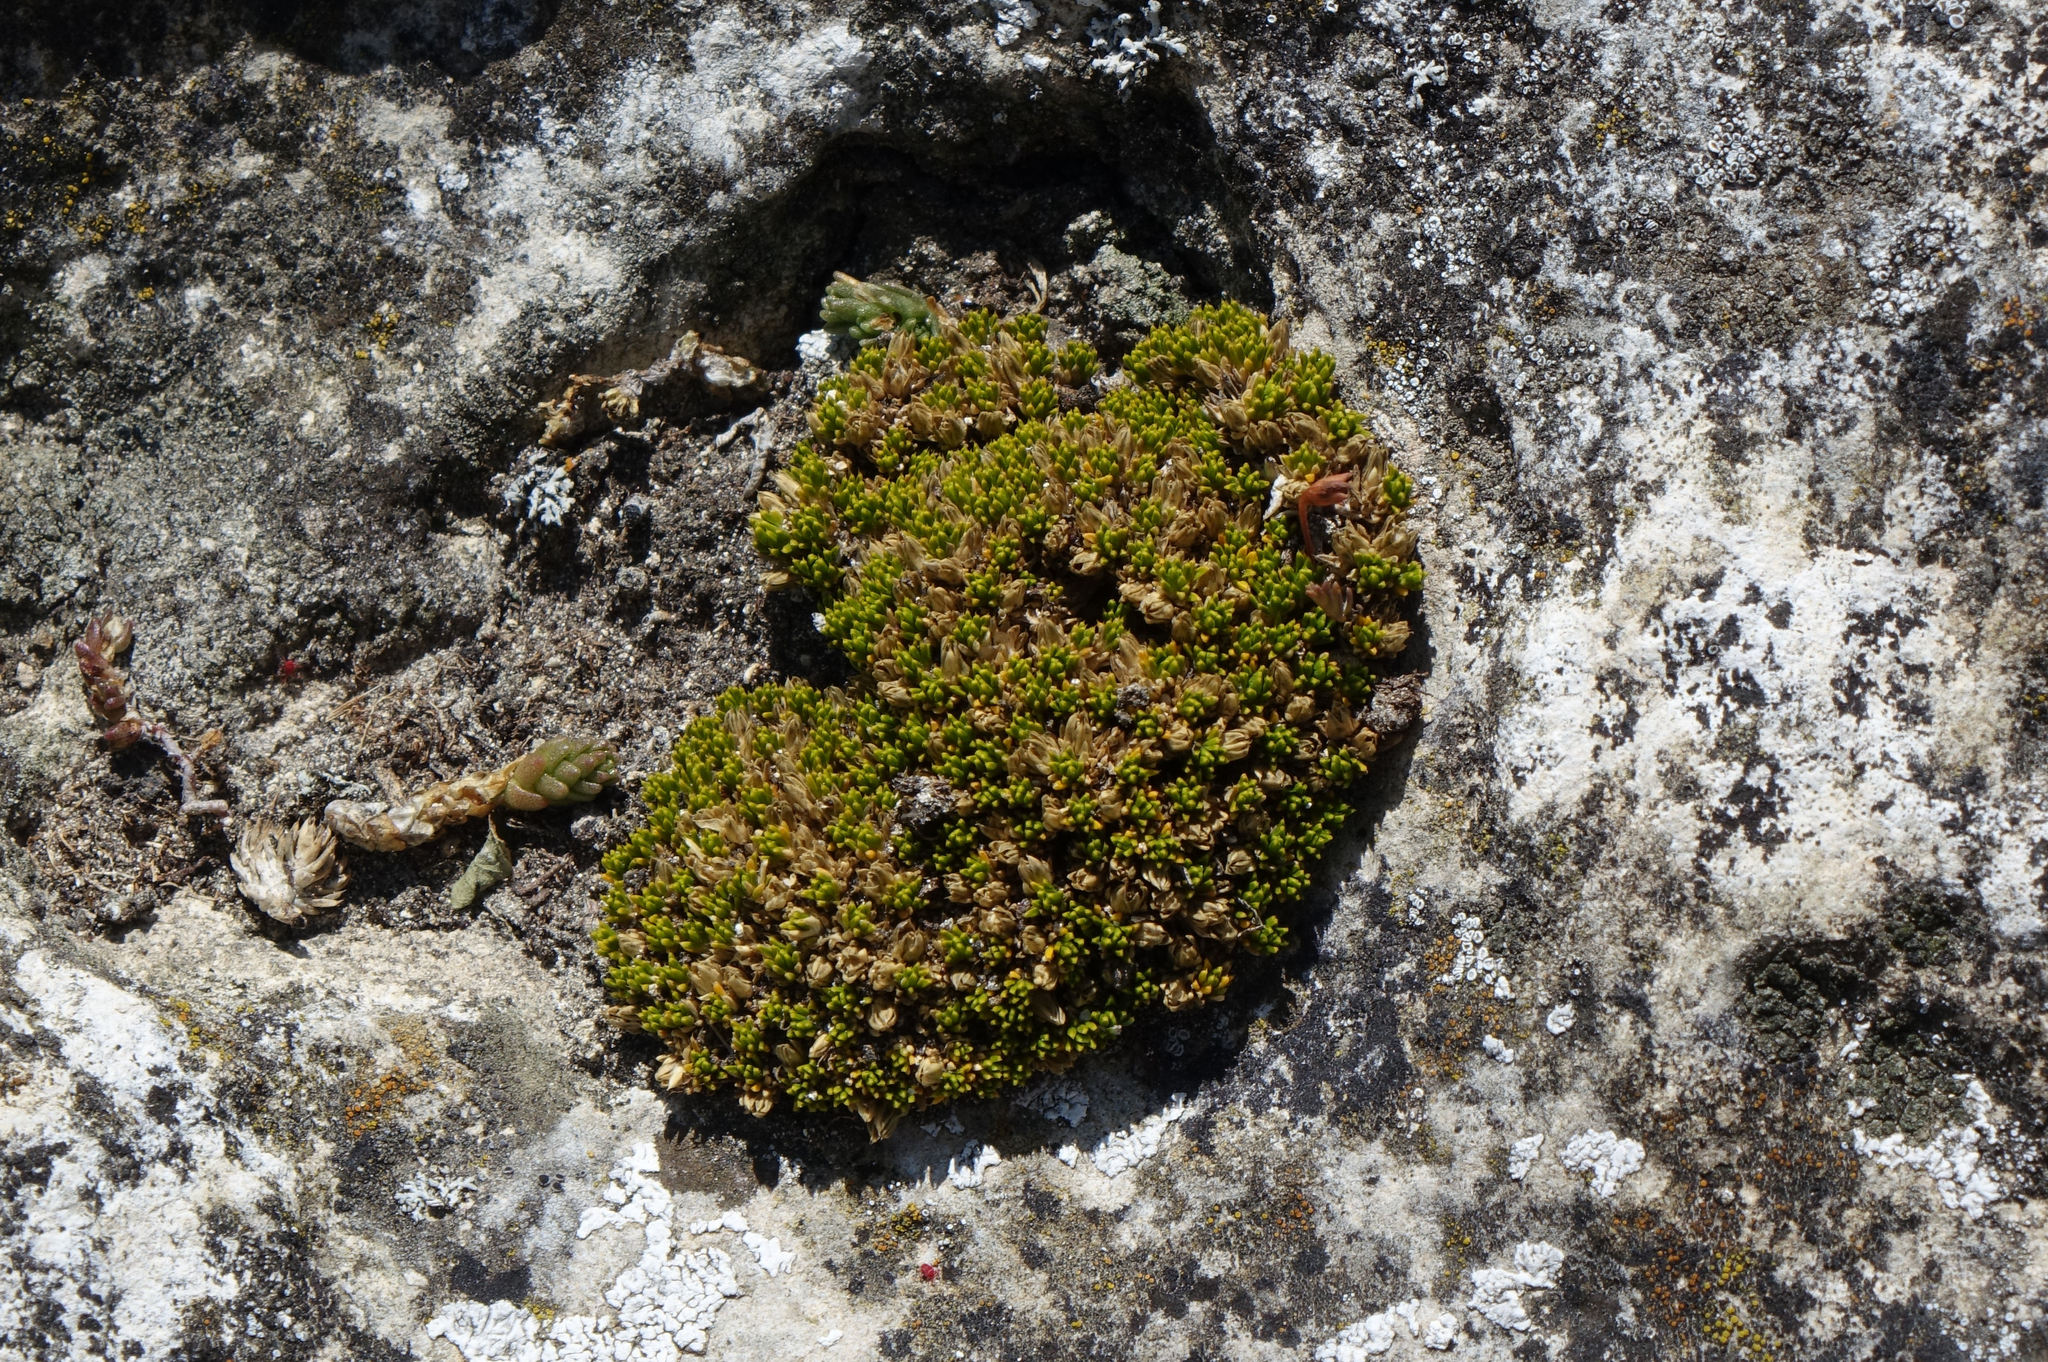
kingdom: Plantae
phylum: Tracheophyta
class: Magnoliopsida
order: Caryophyllales
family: Caryophyllaceae
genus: Colobanthus
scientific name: Colobanthus brevisepalus
